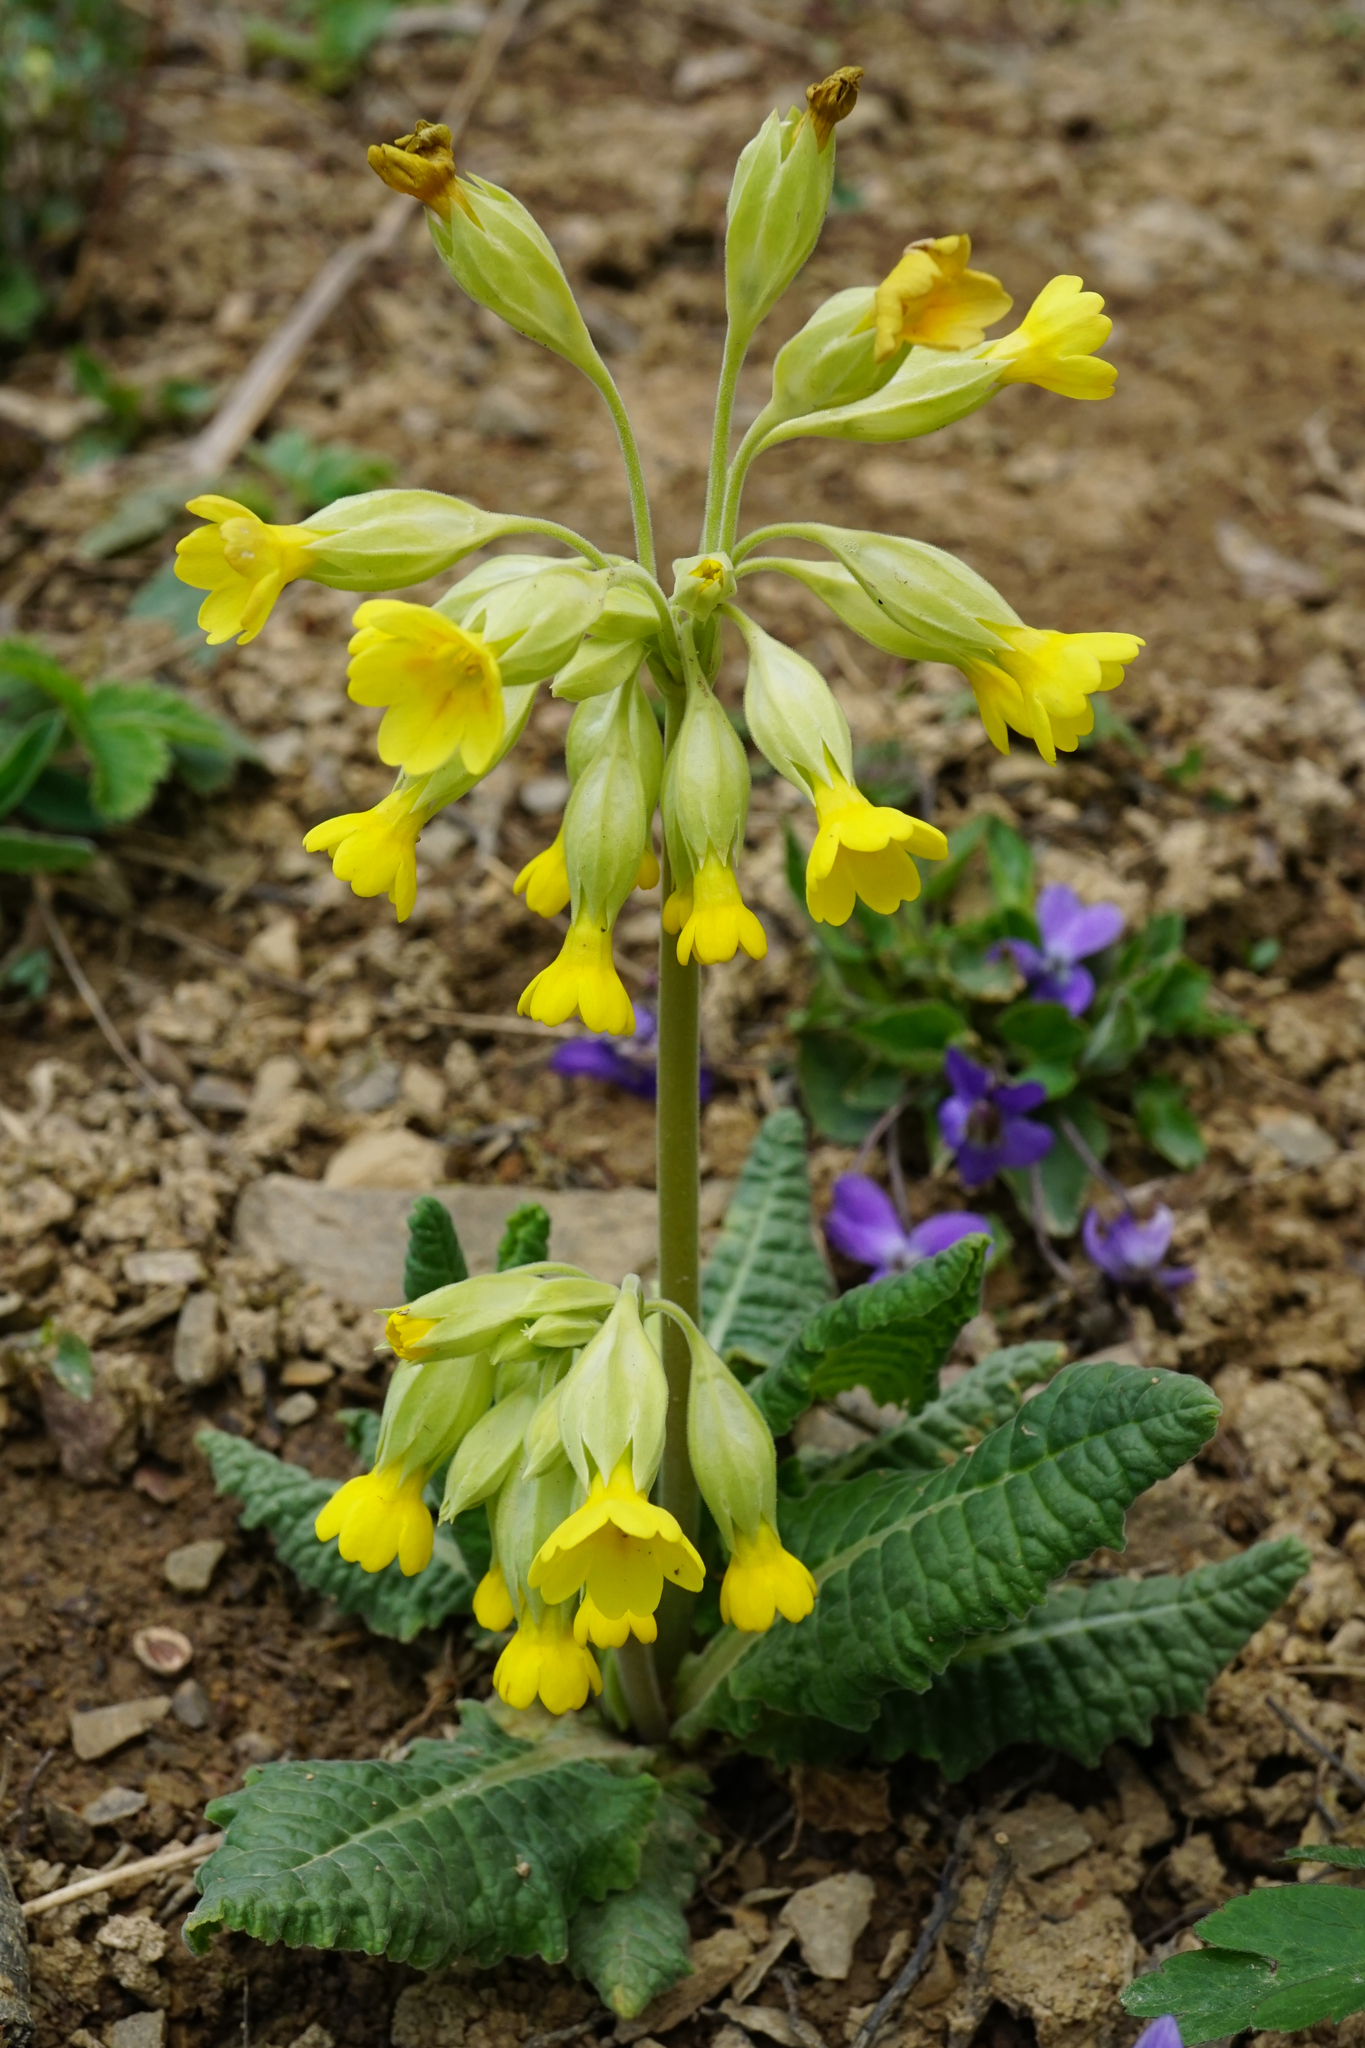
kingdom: Plantae
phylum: Tracheophyta
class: Magnoliopsida
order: Ericales
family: Primulaceae
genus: Primula
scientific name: Primula veris
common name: Cowslip
